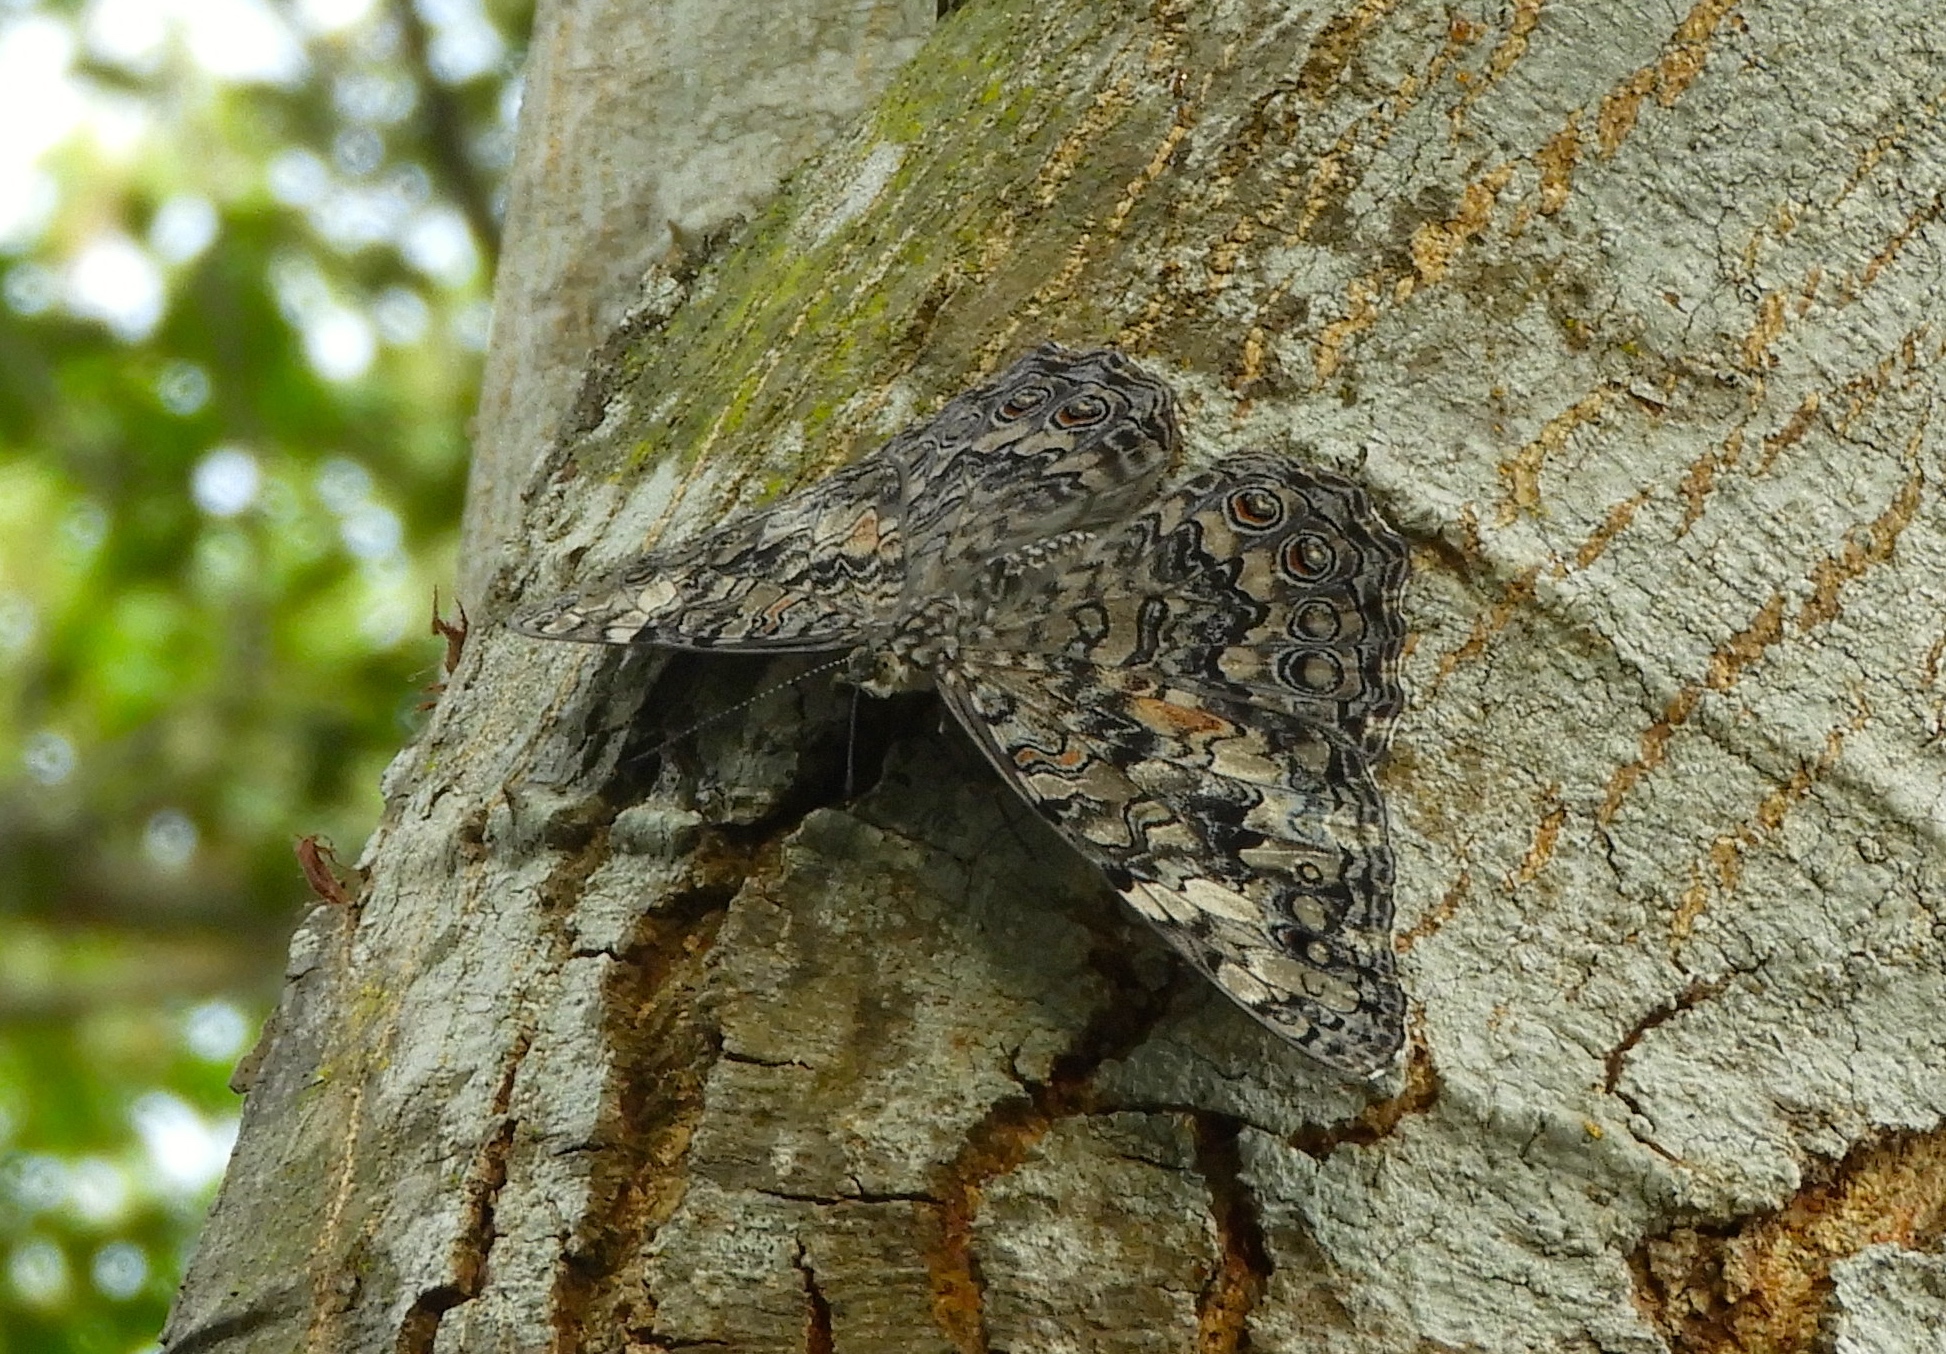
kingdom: Animalia
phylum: Arthropoda
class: Insecta
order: Lepidoptera
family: Nymphalidae
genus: Hamadryas
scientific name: Hamadryas februa
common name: Gray cracker
